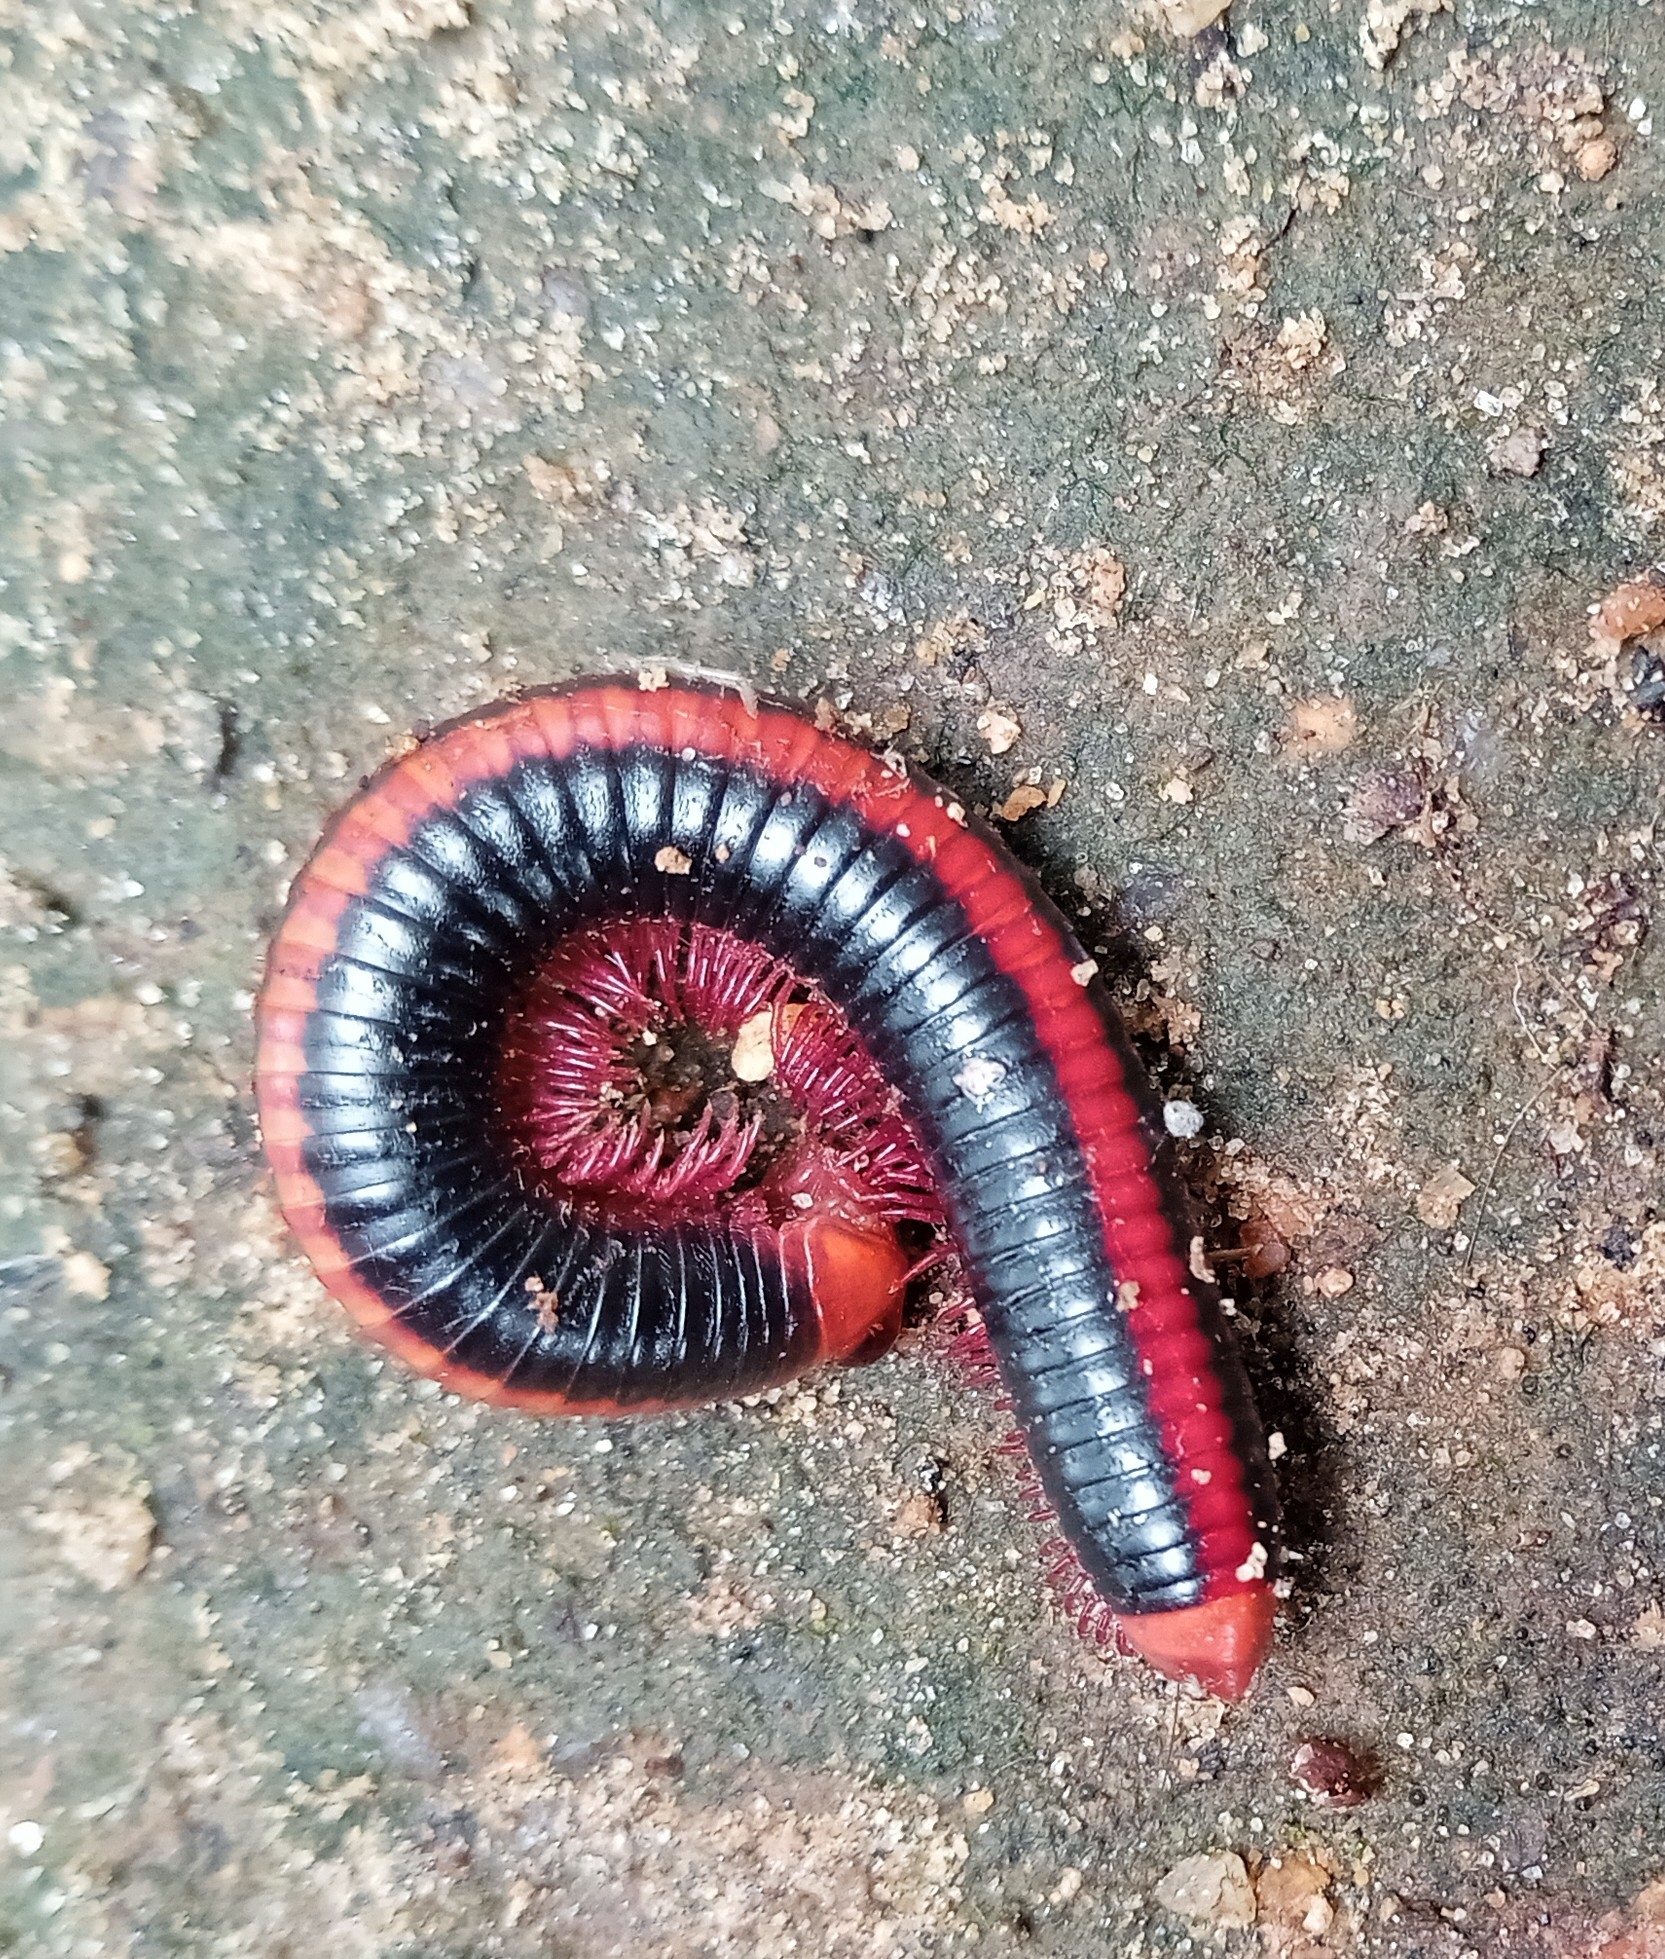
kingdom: Animalia
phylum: Arthropoda
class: Diplopoda
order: Spirobolida
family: Pachybolidae
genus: Xenobolus
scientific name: Xenobolus carnifex
